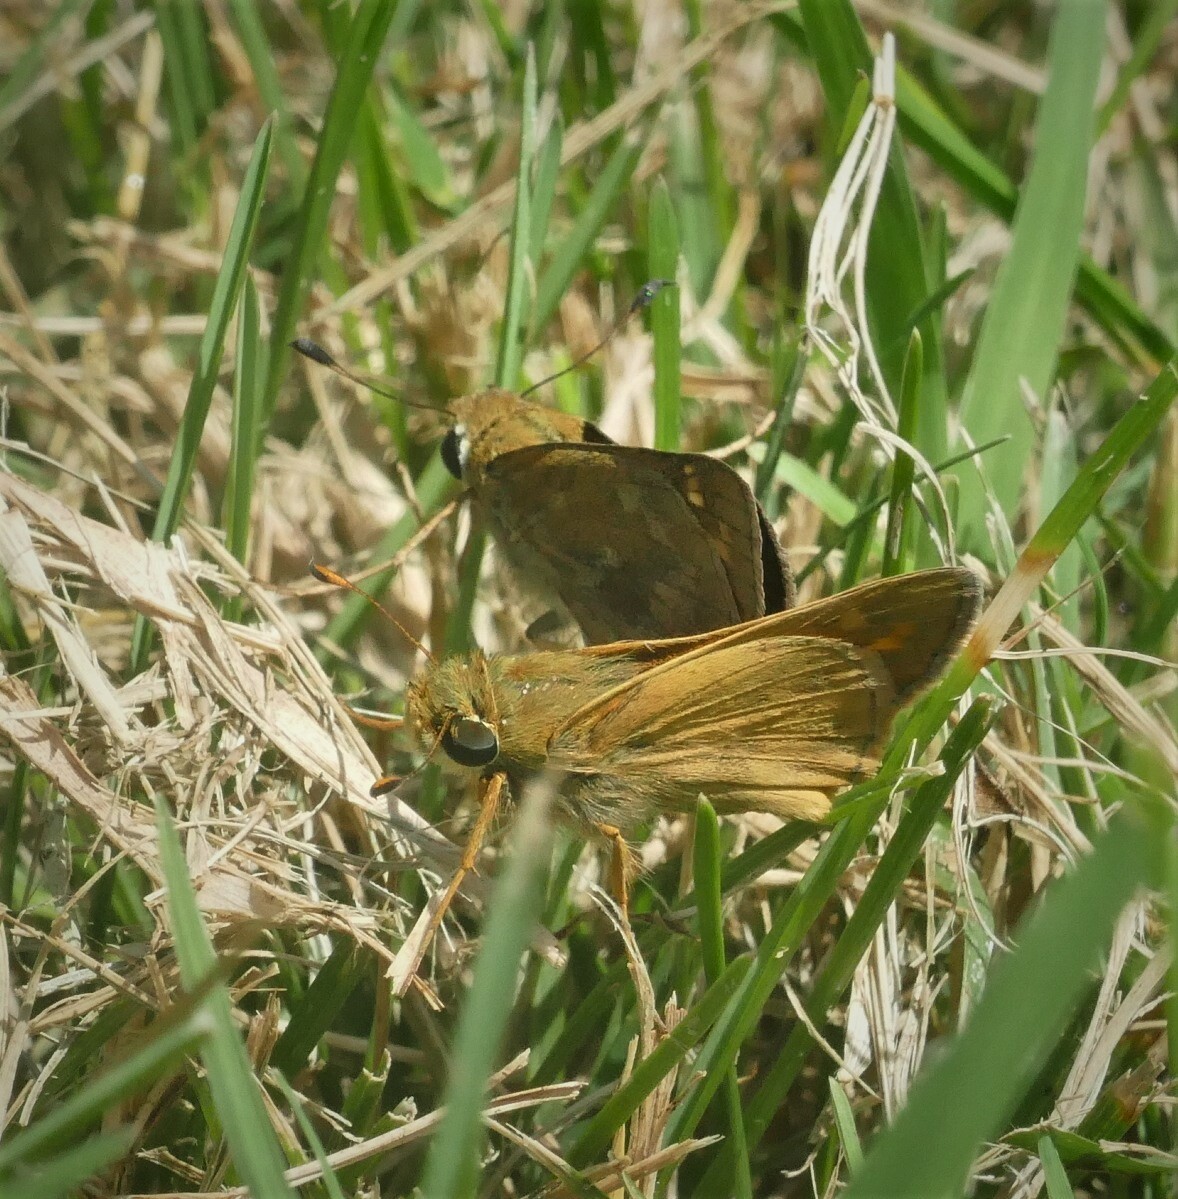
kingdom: Animalia
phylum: Arthropoda
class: Insecta
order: Lepidoptera
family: Hesperiidae
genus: Atalopedes
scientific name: Atalopedes
